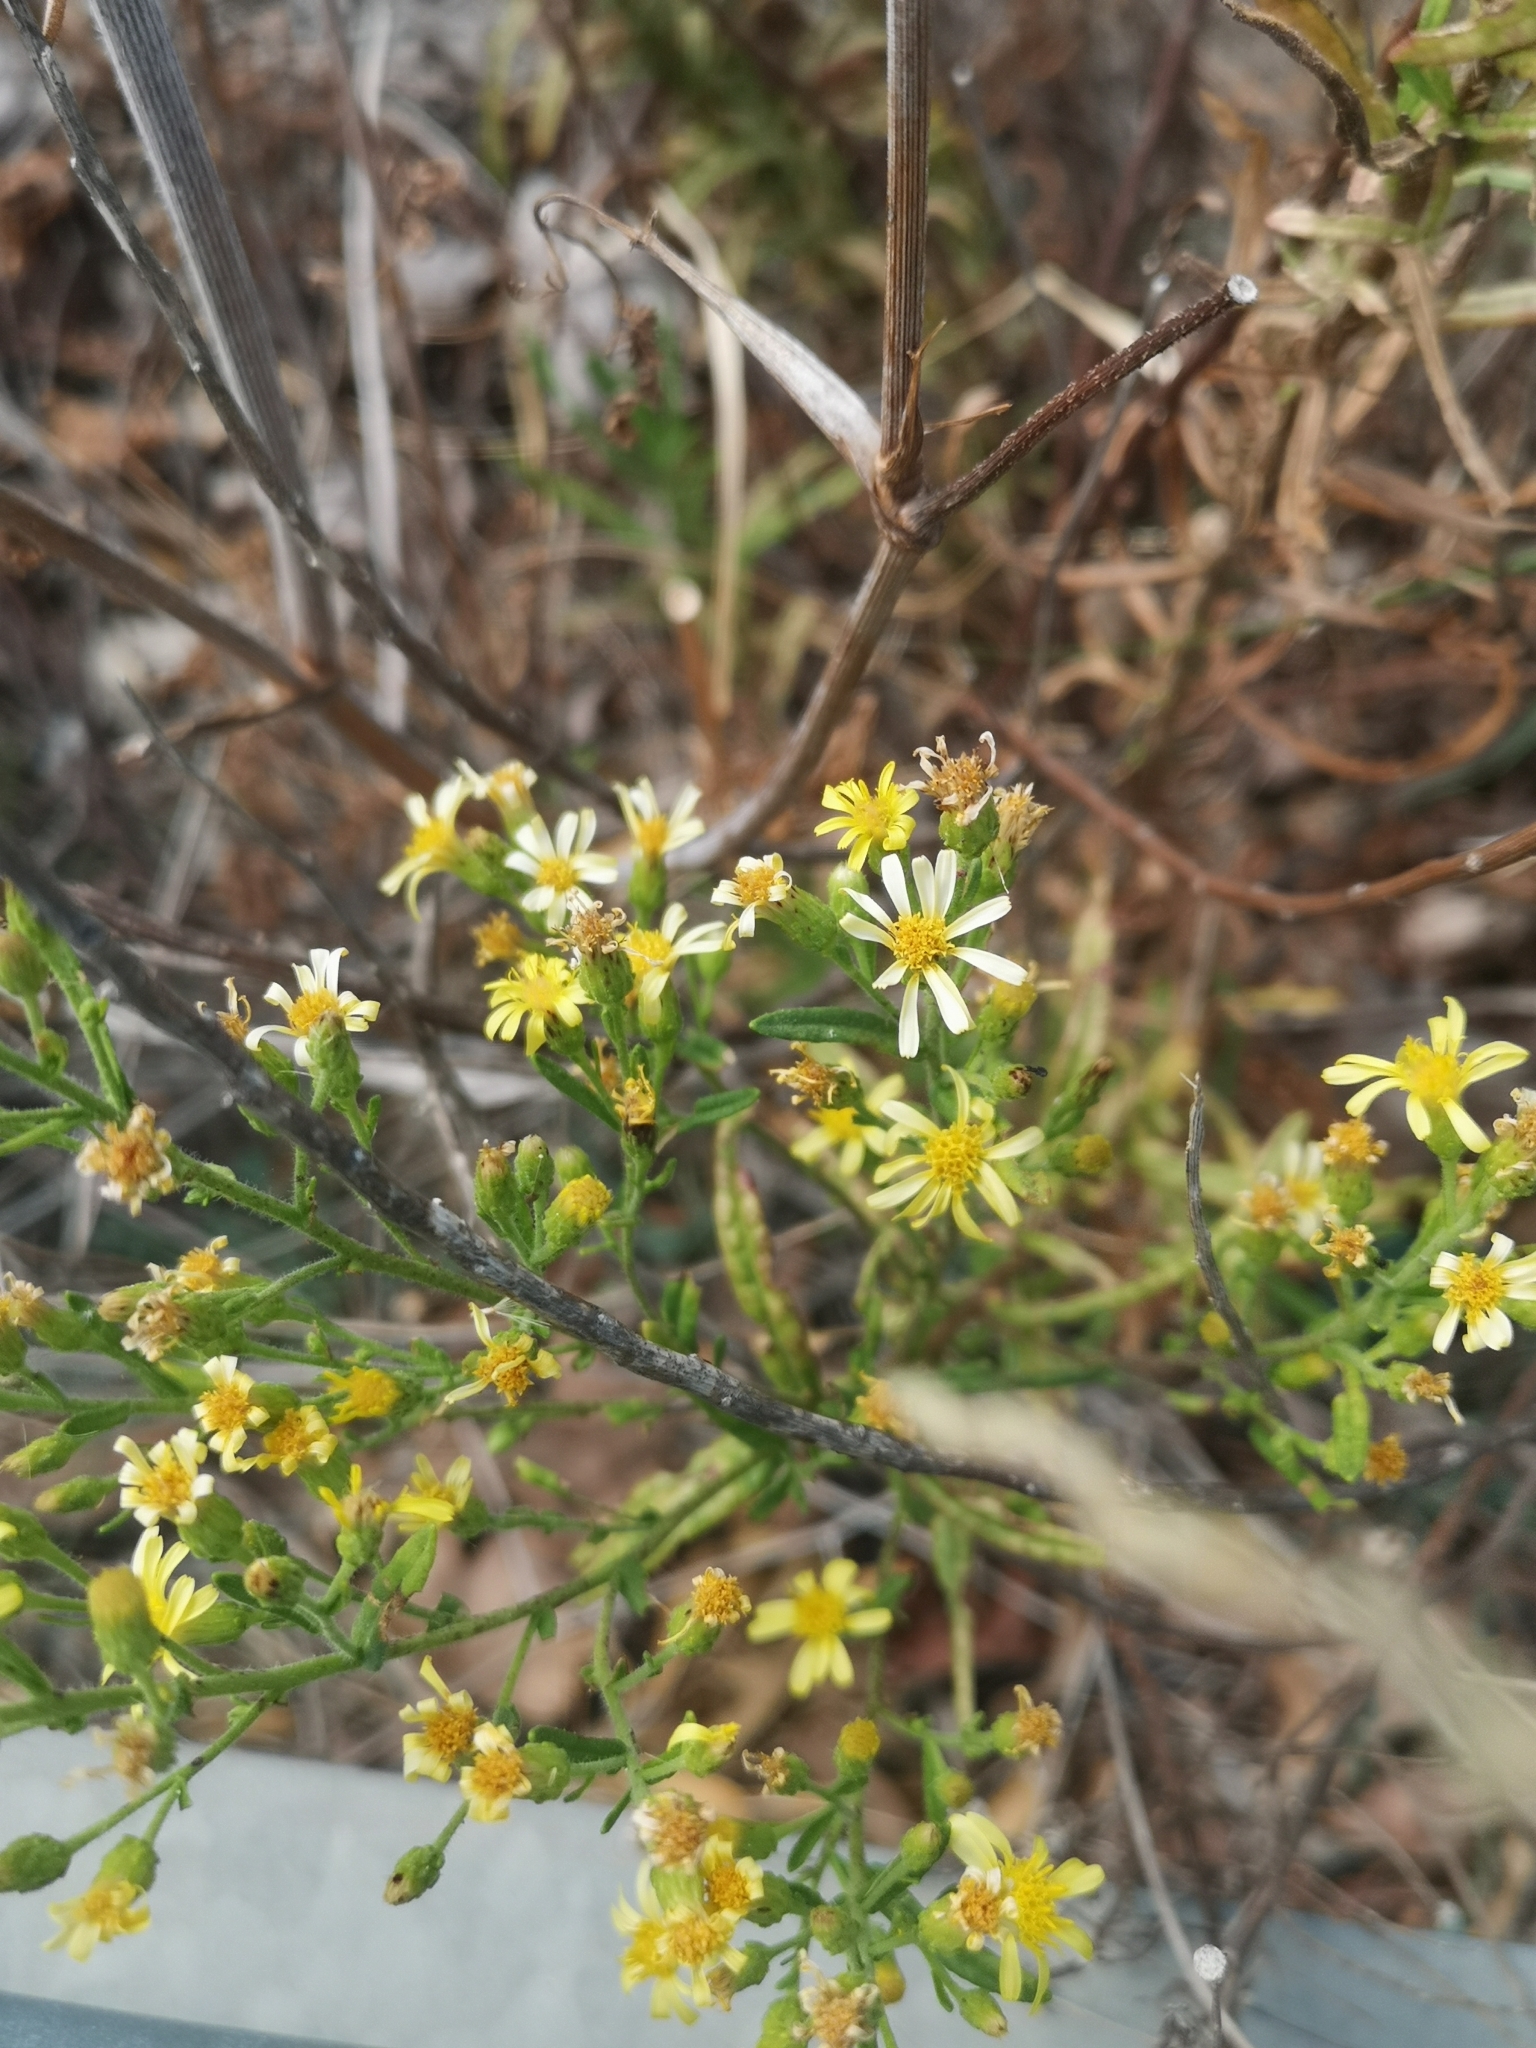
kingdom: Plantae
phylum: Tracheophyta
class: Magnoliopsida
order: Asterales
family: Asteraceae
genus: Dittrichia
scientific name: Dittrichia viscosa
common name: Woody fleabane
